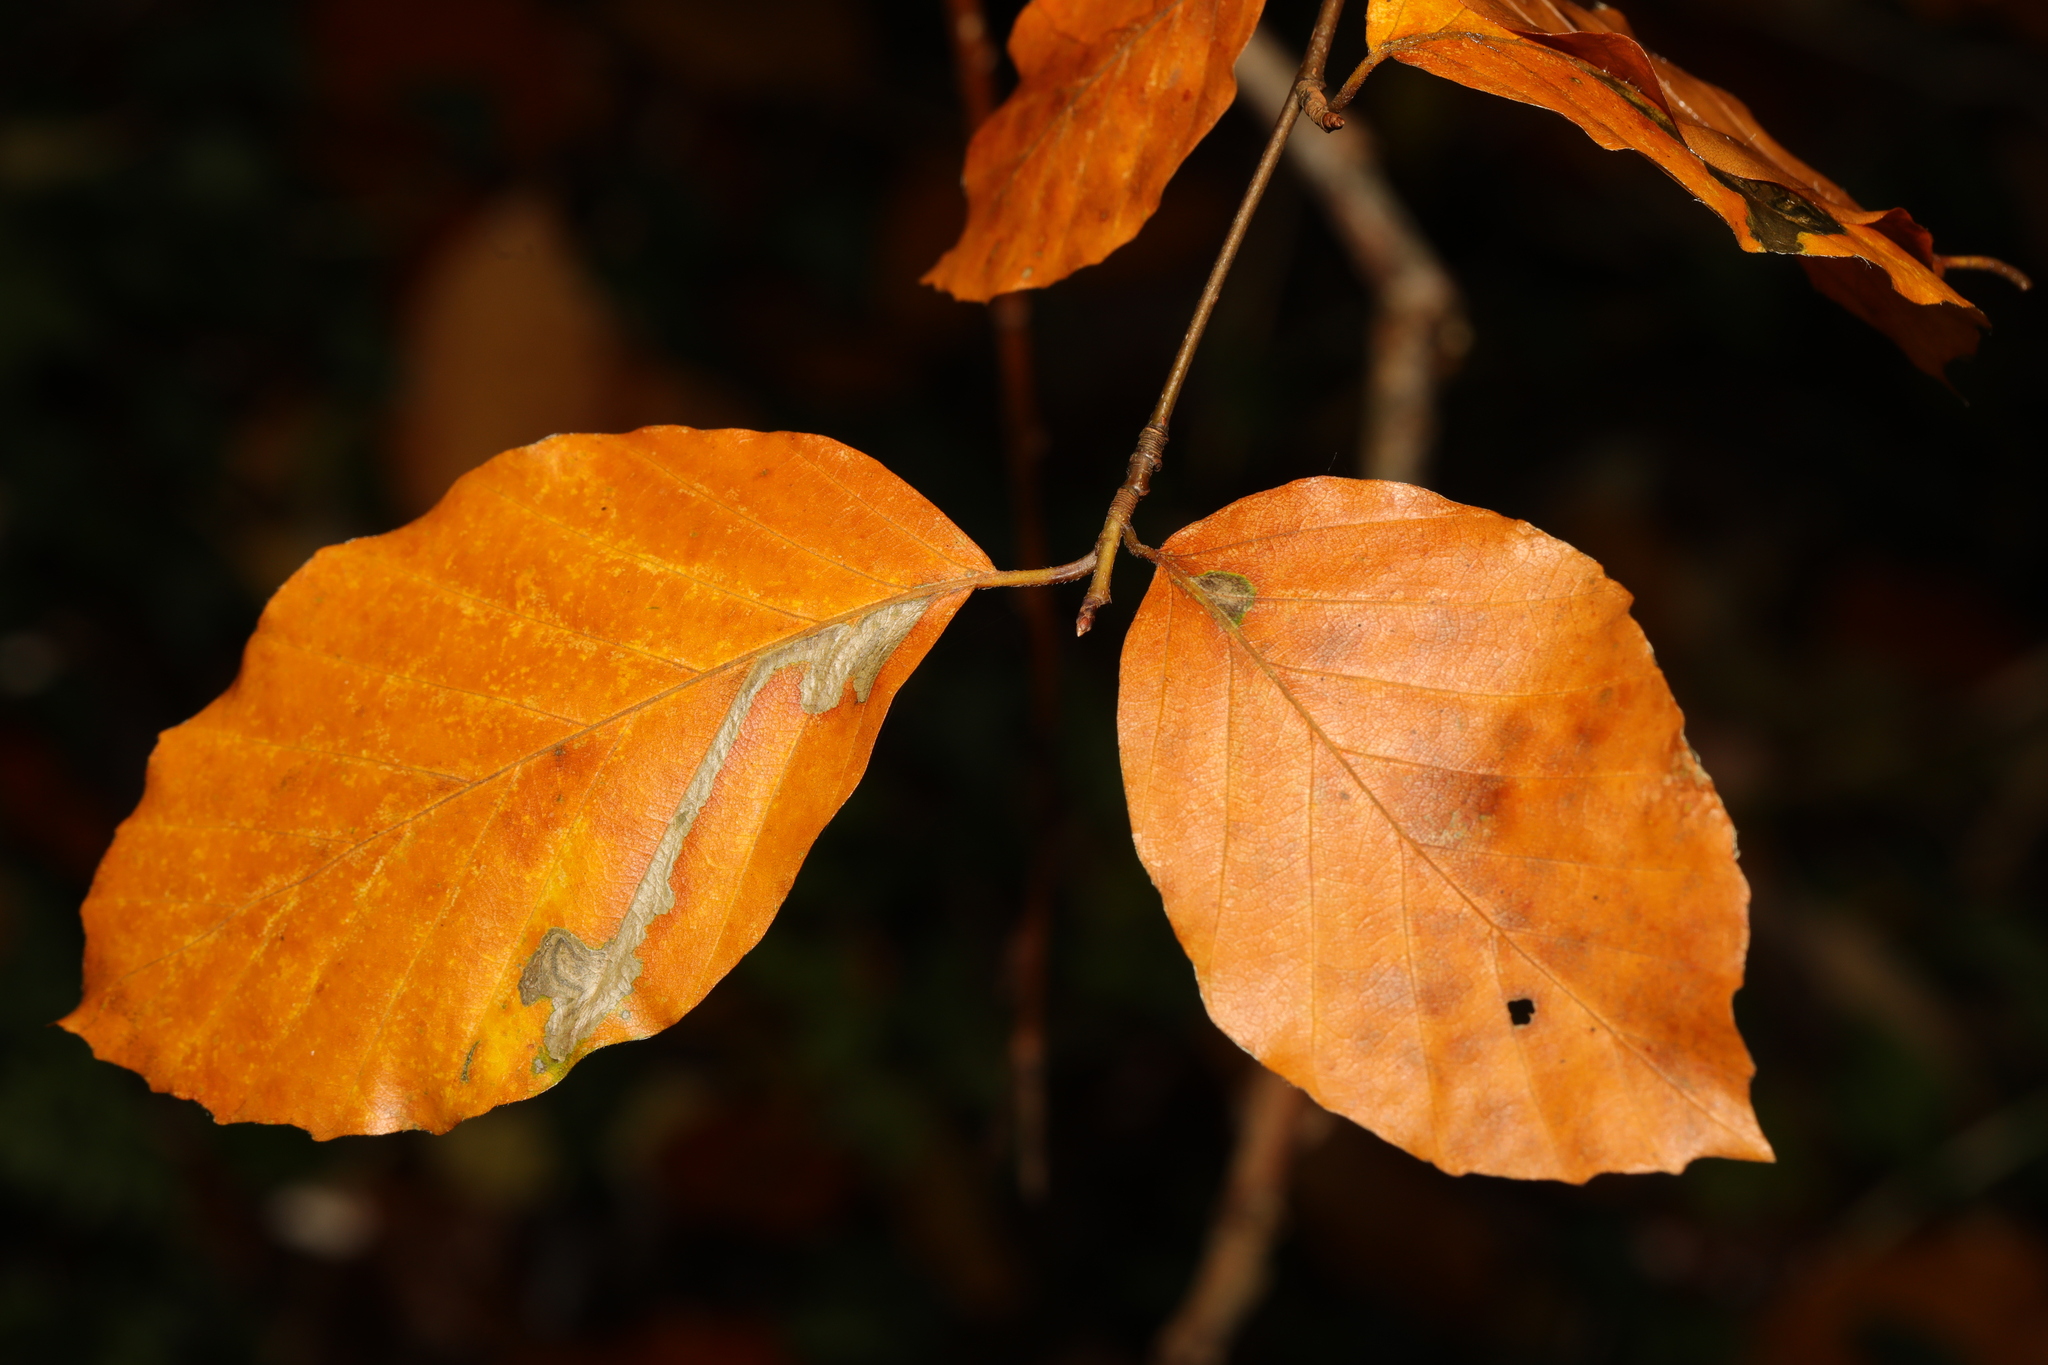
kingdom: Plantae
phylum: Tracheophyta
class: Magnoliopsida
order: Fagales
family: Fagaceae
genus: Fagus
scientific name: Fagus sylvatica
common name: Beech
